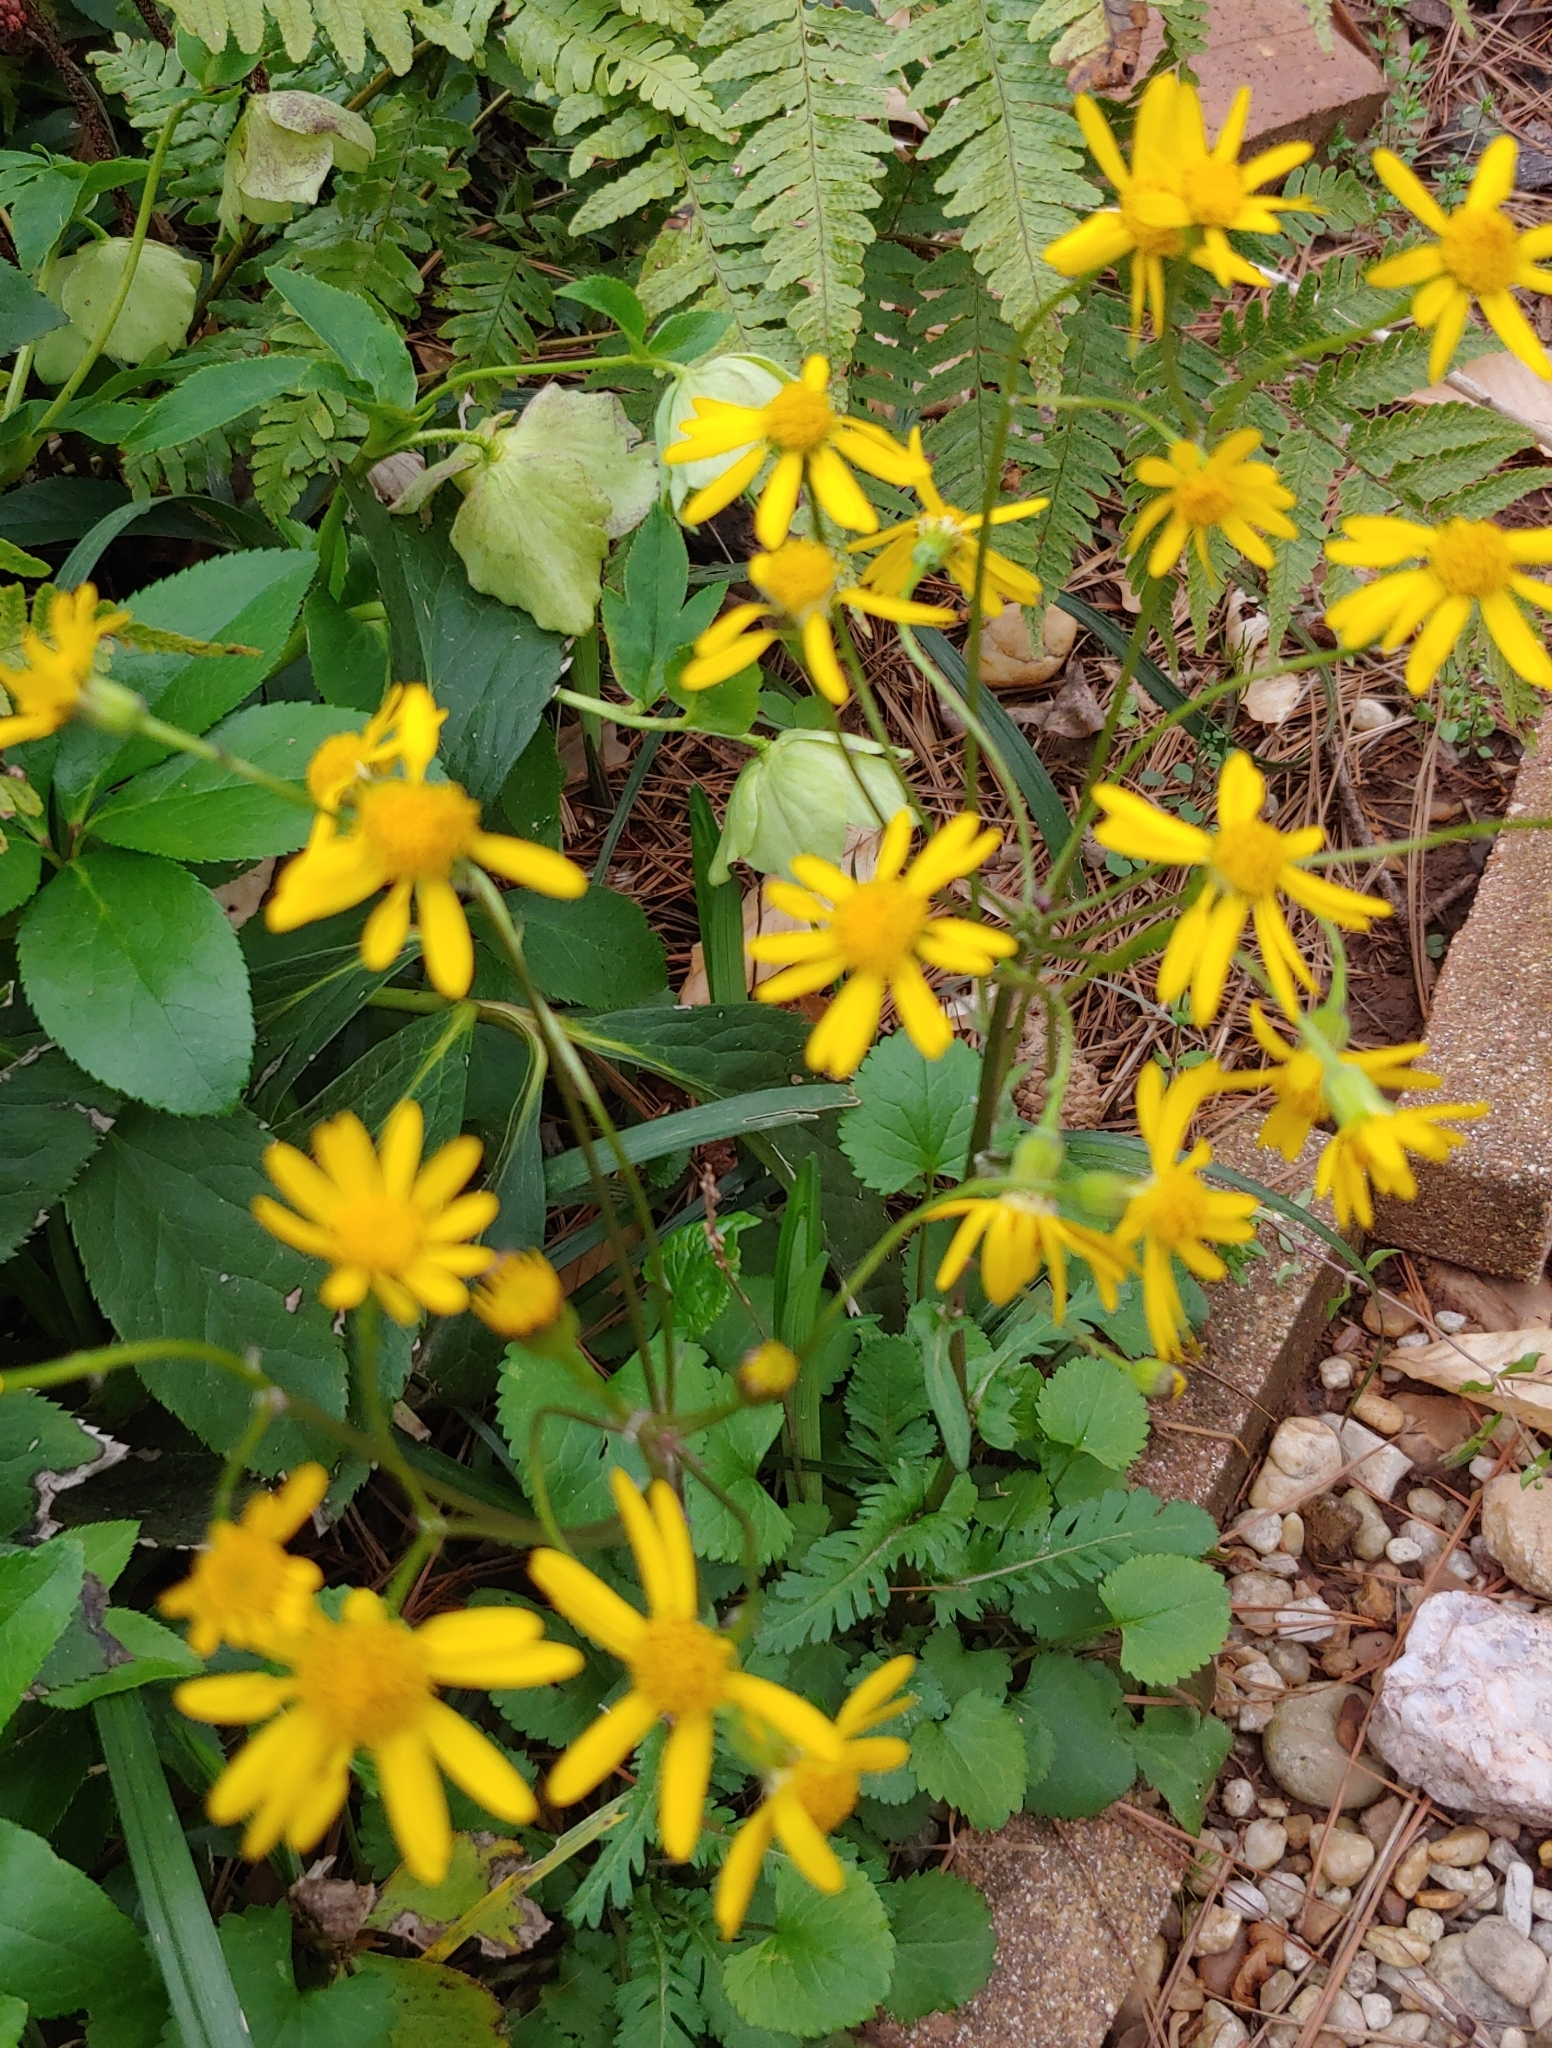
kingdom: Plantae
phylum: Tracheophyta
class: Magnoliopsida
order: Asterales
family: Asteraceae
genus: Packera
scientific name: Packera aurea
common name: Golden groundsel
